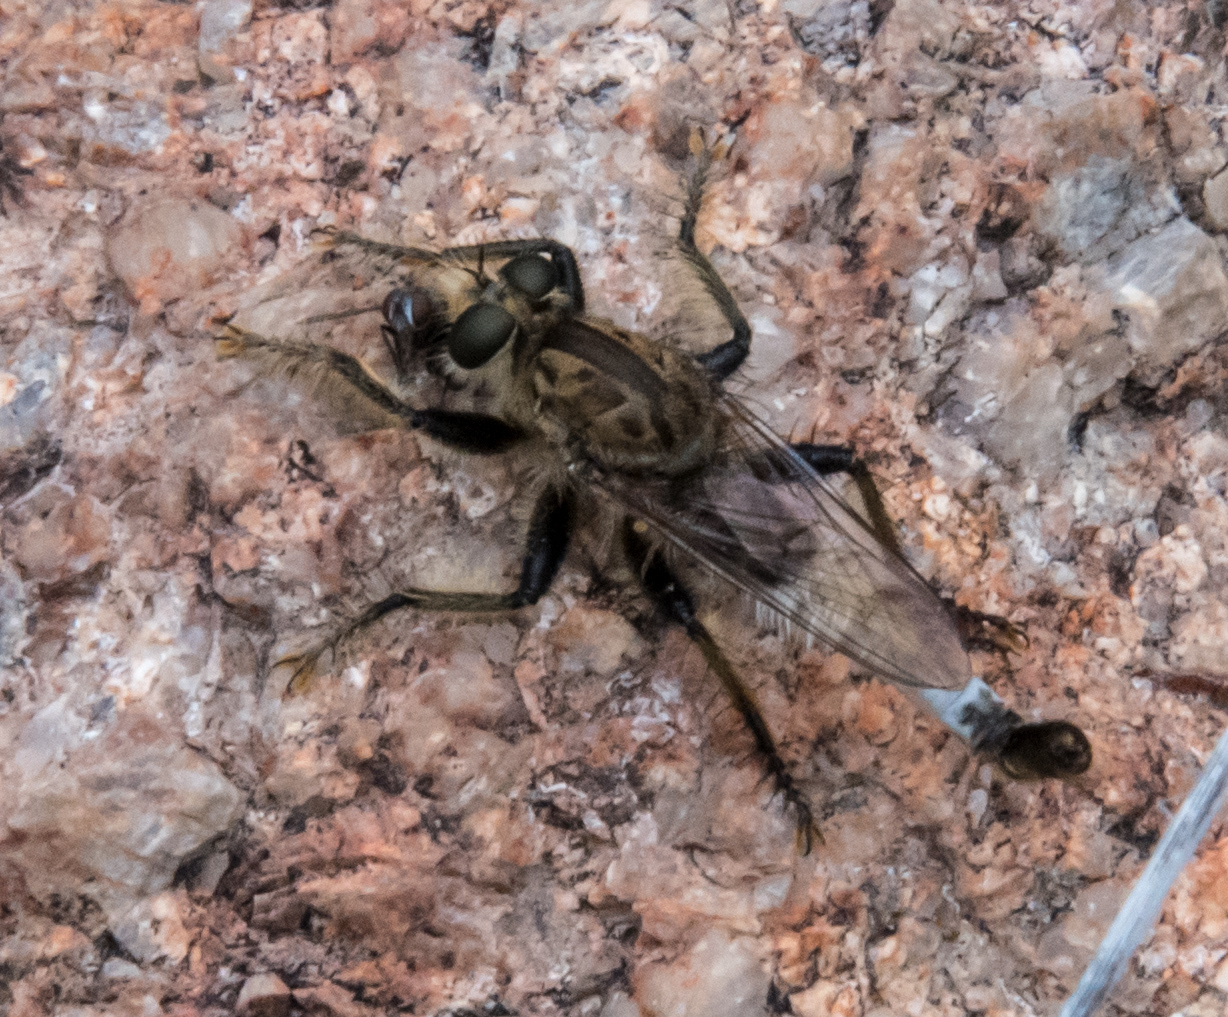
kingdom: Animalia
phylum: Arthropoda
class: Insecta
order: Diptera
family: Asilidae
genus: Efferia
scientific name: Efferia rapax
